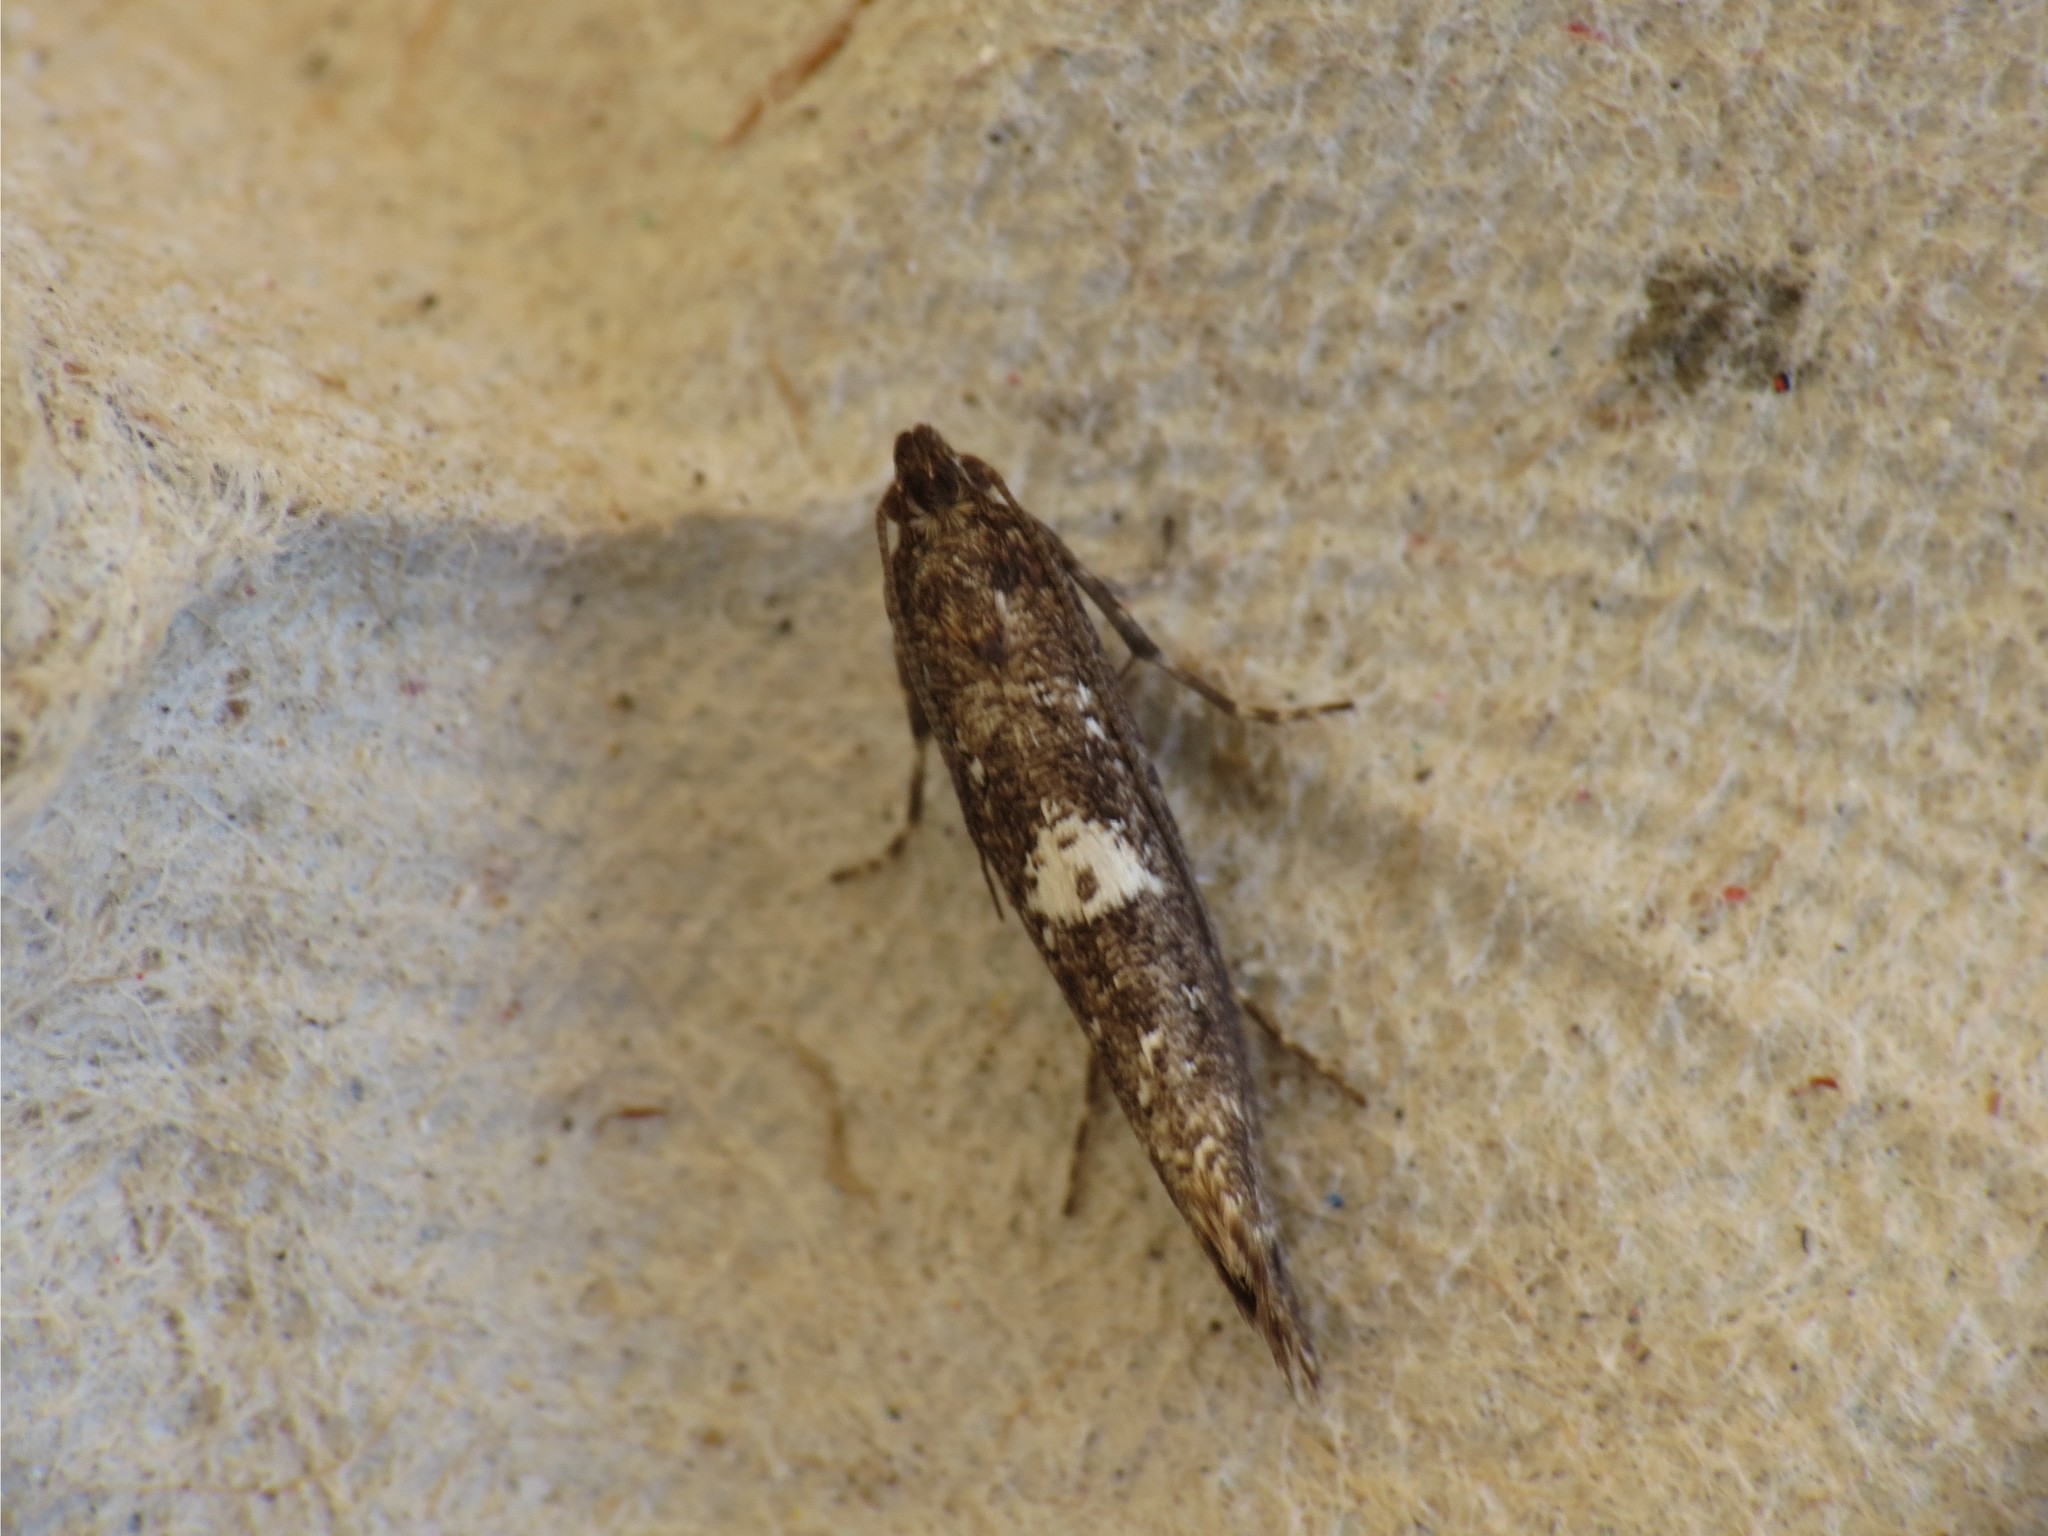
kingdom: Animalia
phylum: Arthropoda
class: Insecta
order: Lepidoptera
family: Glyphipterigidae
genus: Acrolepia
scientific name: Acrolepia assectella
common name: Onion leaf miner
